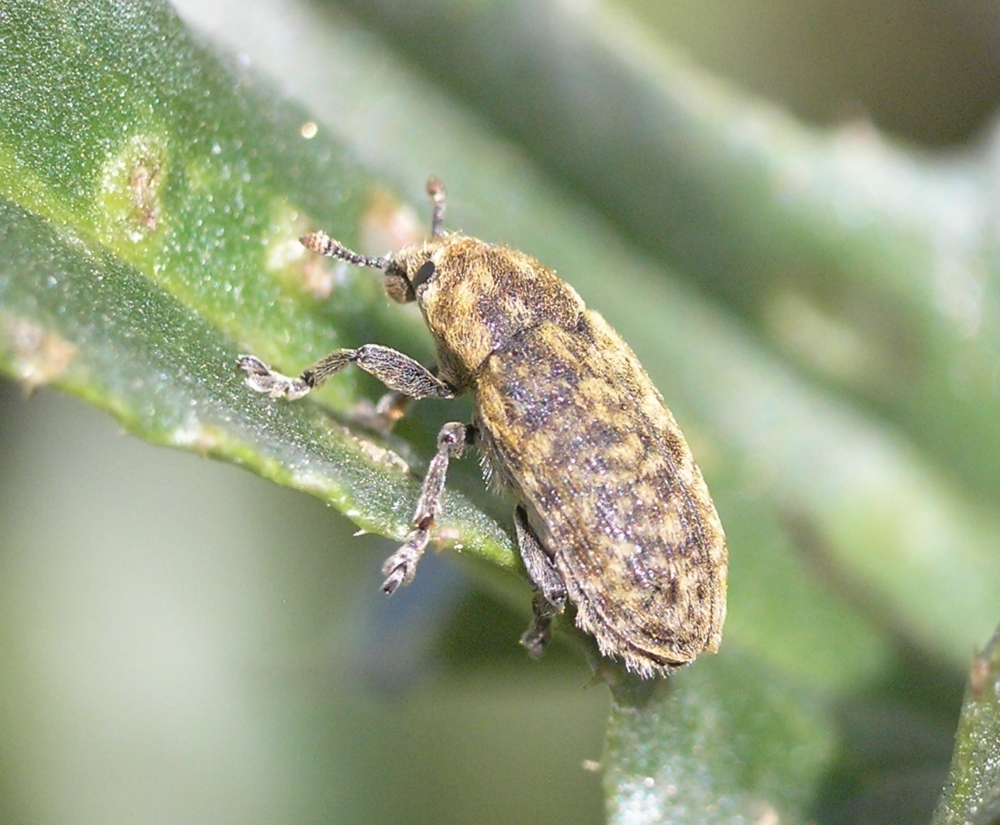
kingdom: Animalia
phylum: Arthropoda
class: Insecta
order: Coleoptera
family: Curculionidae
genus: Rhinocyllus
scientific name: Rhinocyllus conicus
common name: Weevil
